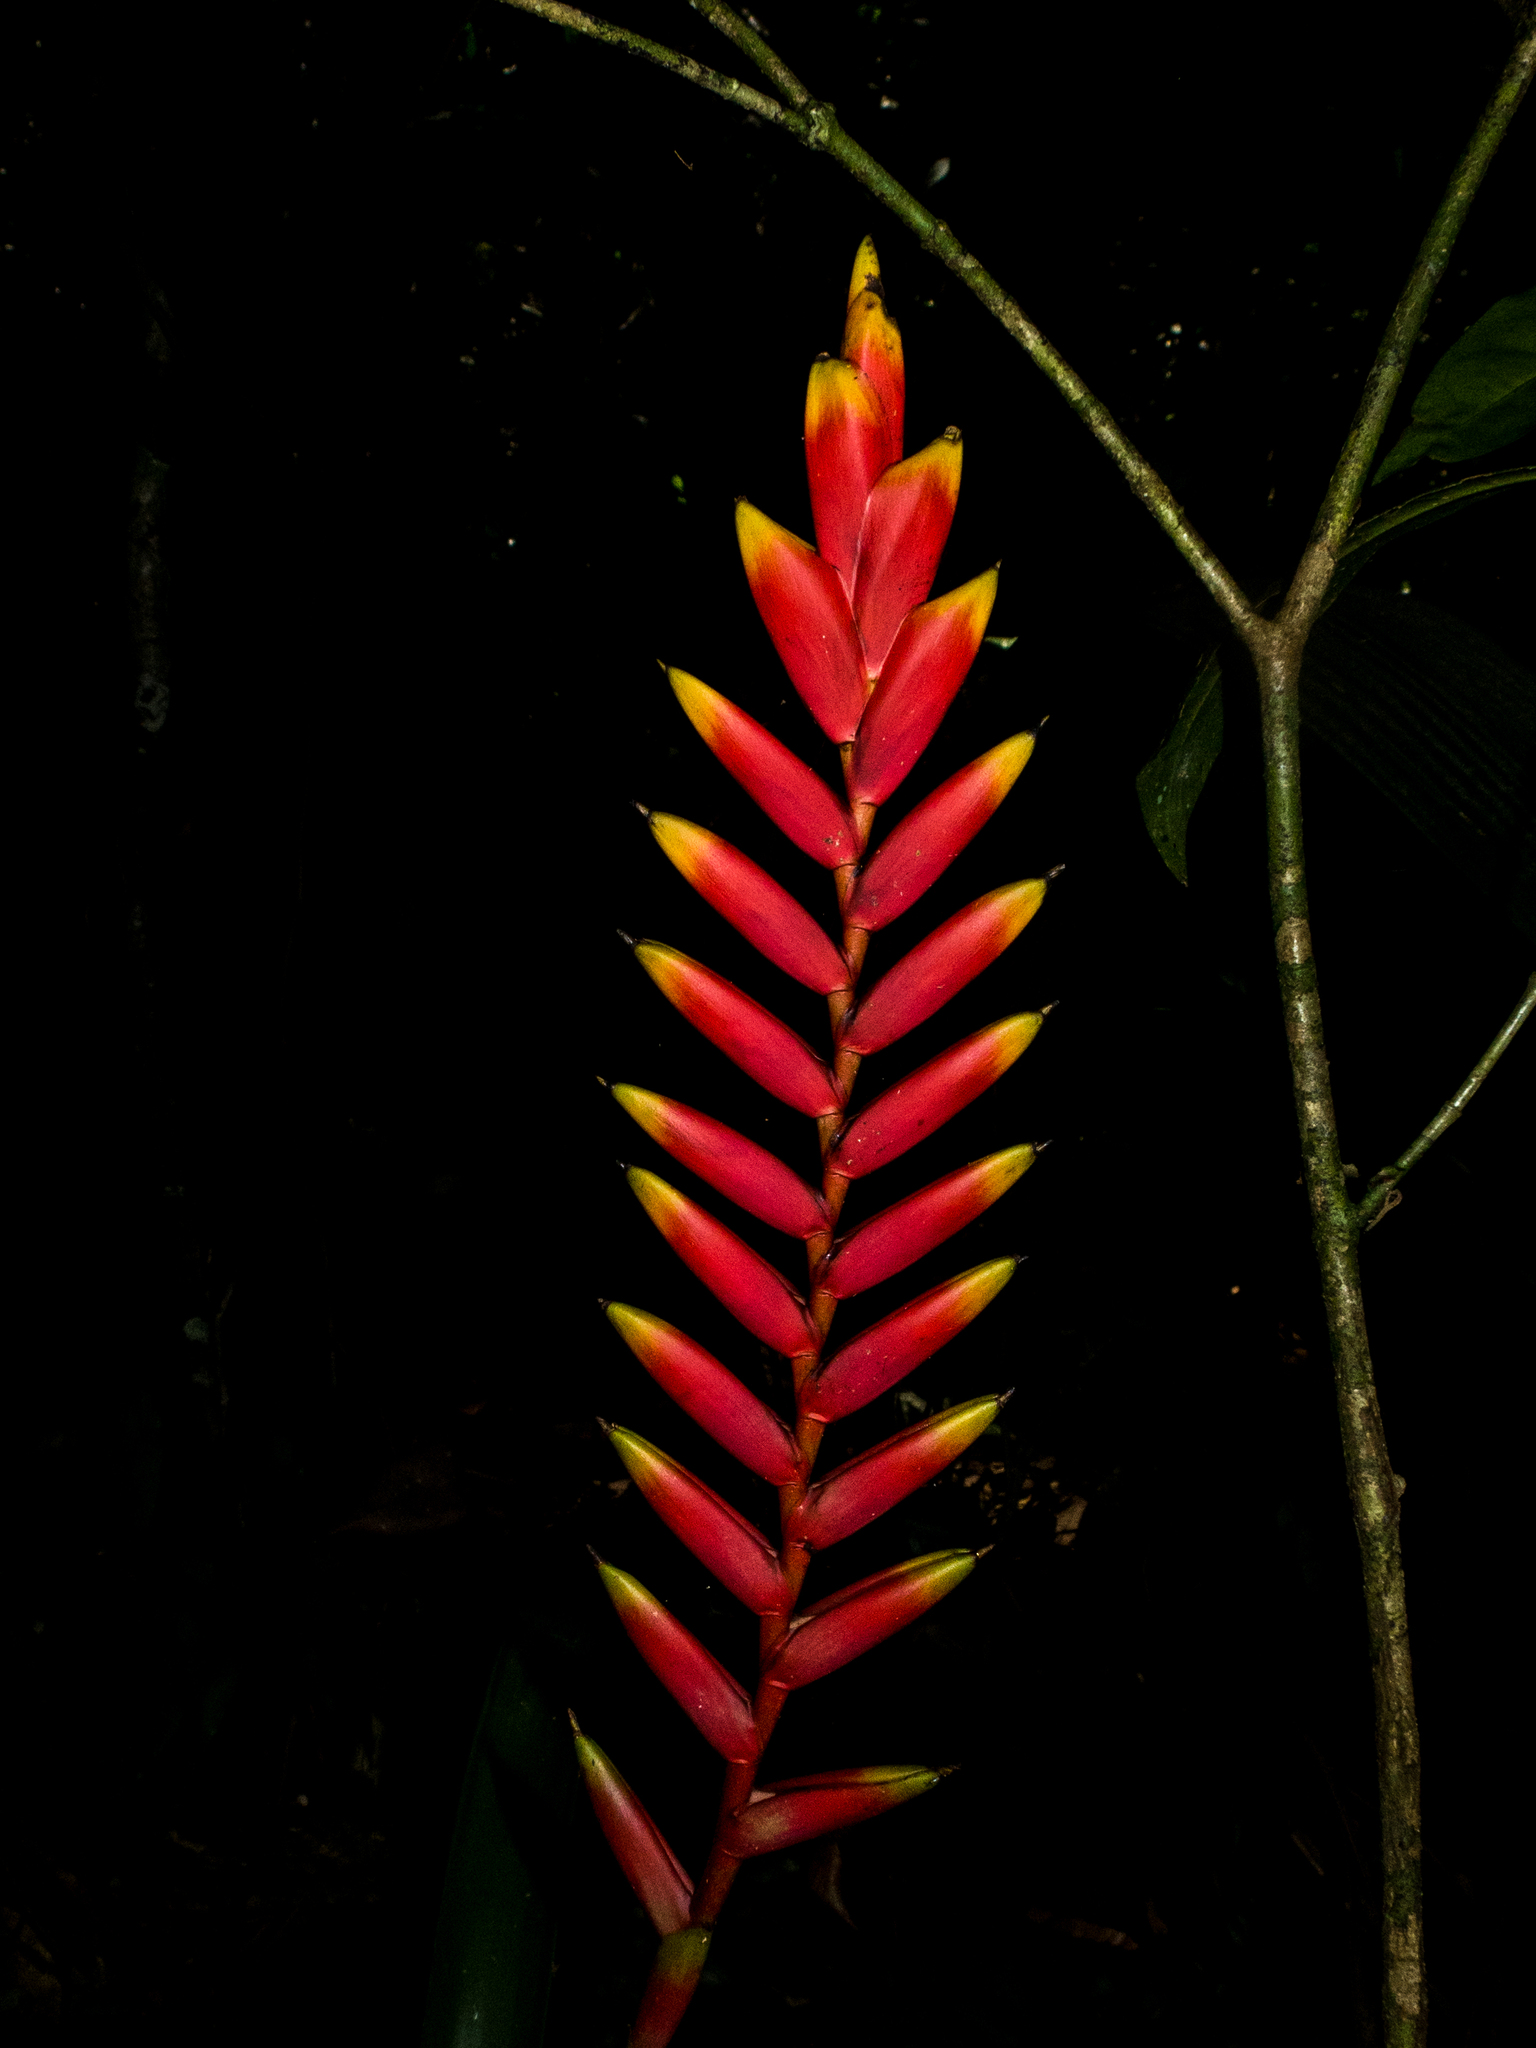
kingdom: Plantae
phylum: Tracheophyta
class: Liliopsida
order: Poales
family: Bromeliaceae
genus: Vriesea
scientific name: Vriesea ensiformis
